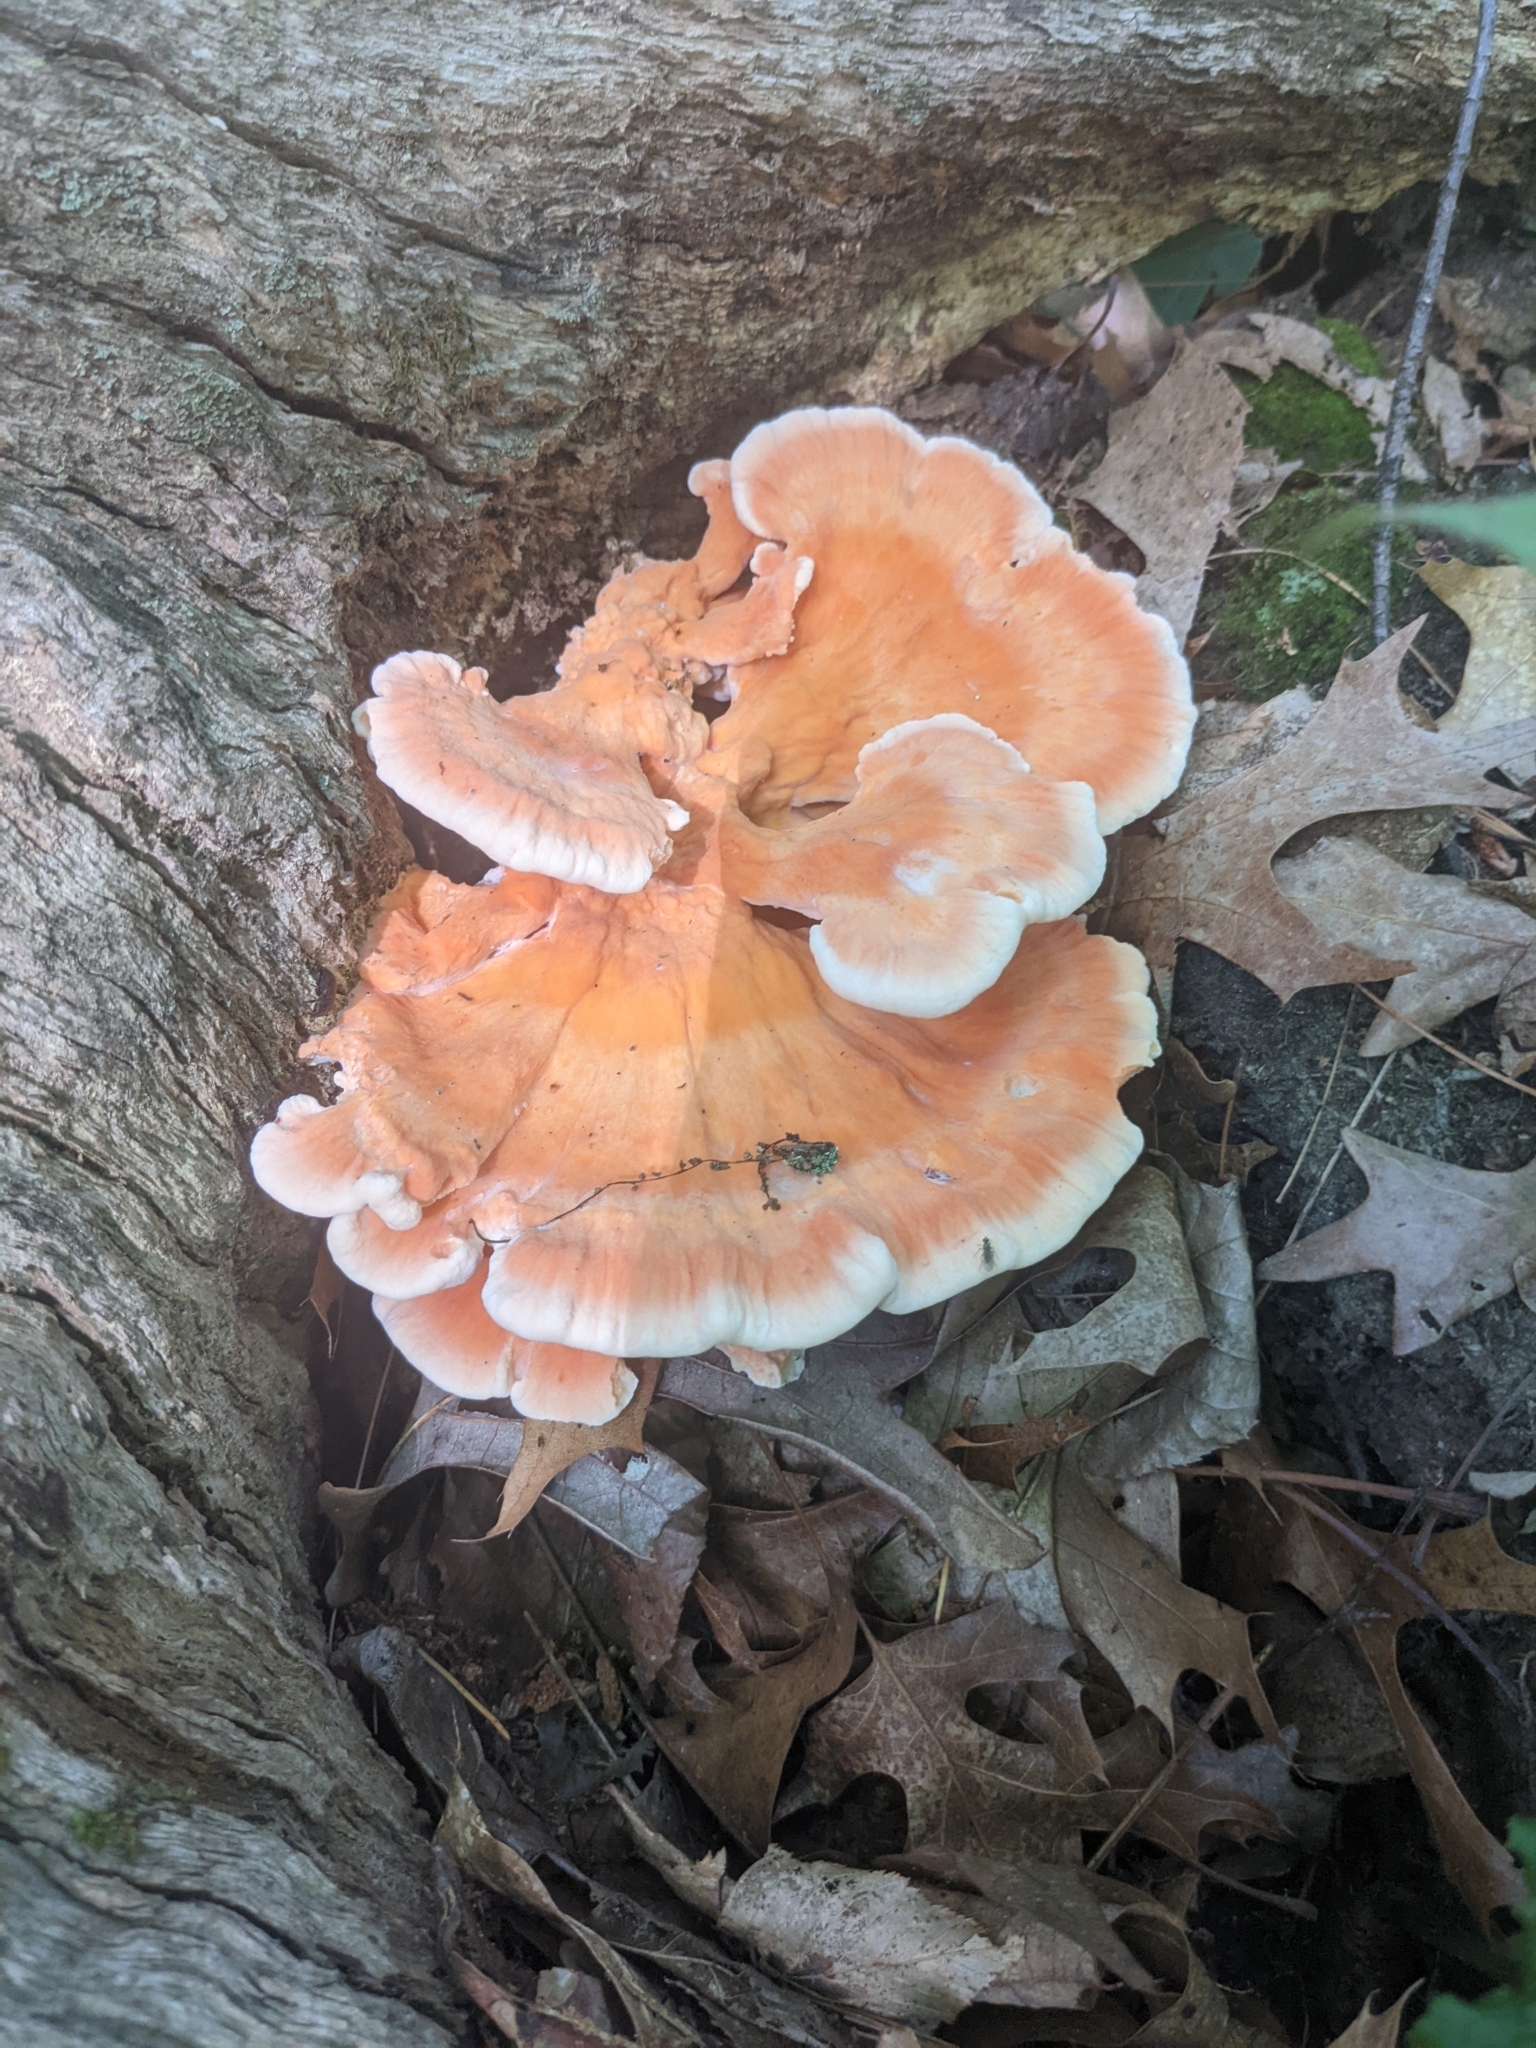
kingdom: Fungi
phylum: Basidiomycota
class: Agaricomycetes
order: Polyporales
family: Laetiporaceae
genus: Laetiporus
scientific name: Laetiporus sulphureus
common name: Chicken of the woods
